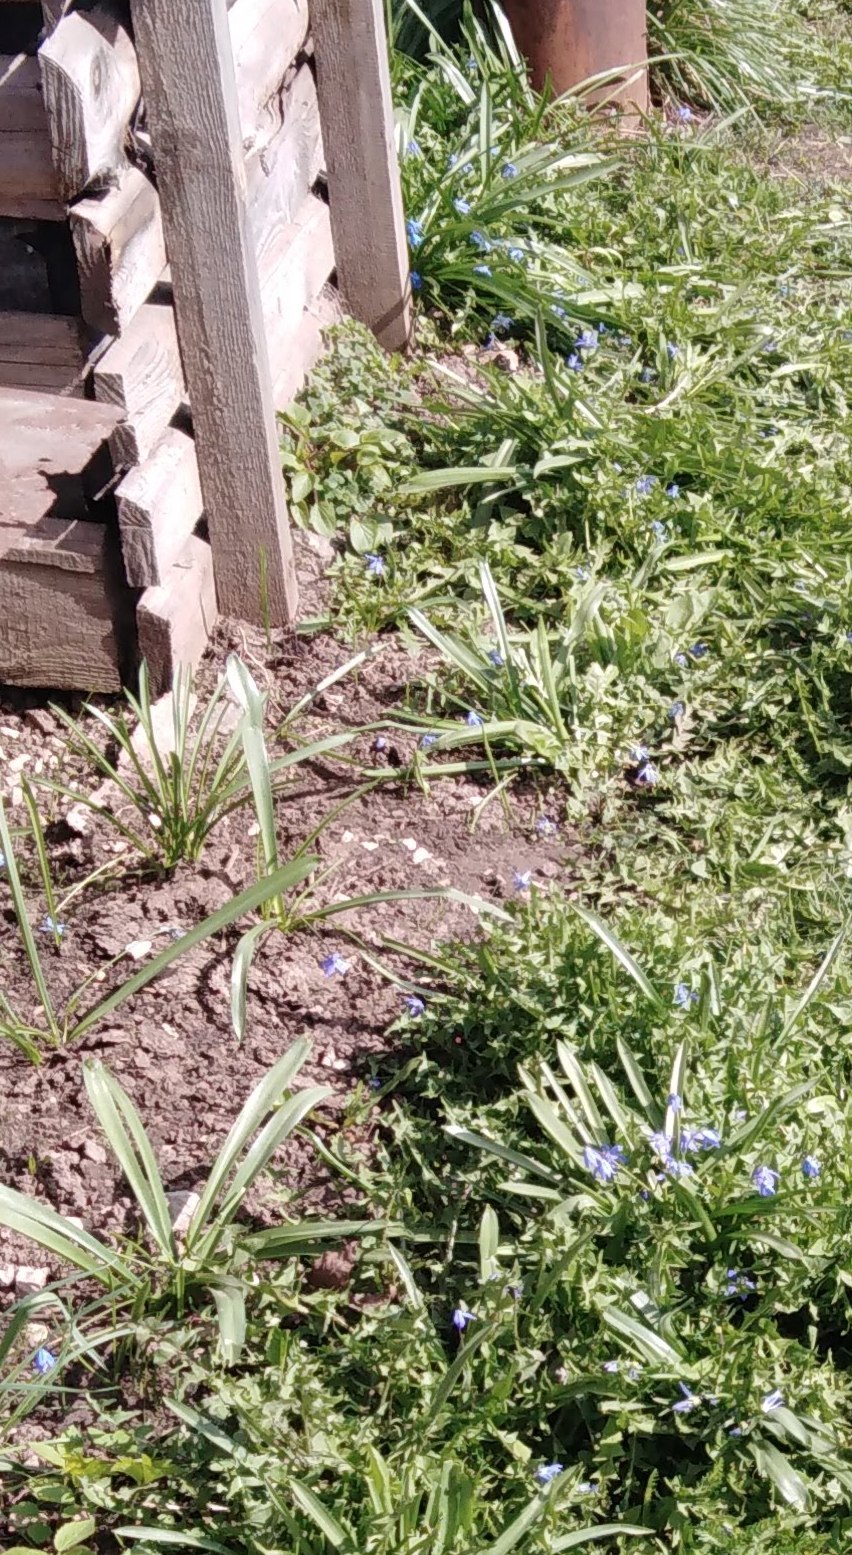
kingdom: Plantae
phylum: Tracheophyta
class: Liliopsida
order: Asparagales
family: Asparagaceae
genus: Scilla
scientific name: Scilla siberica
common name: Siberian squill
